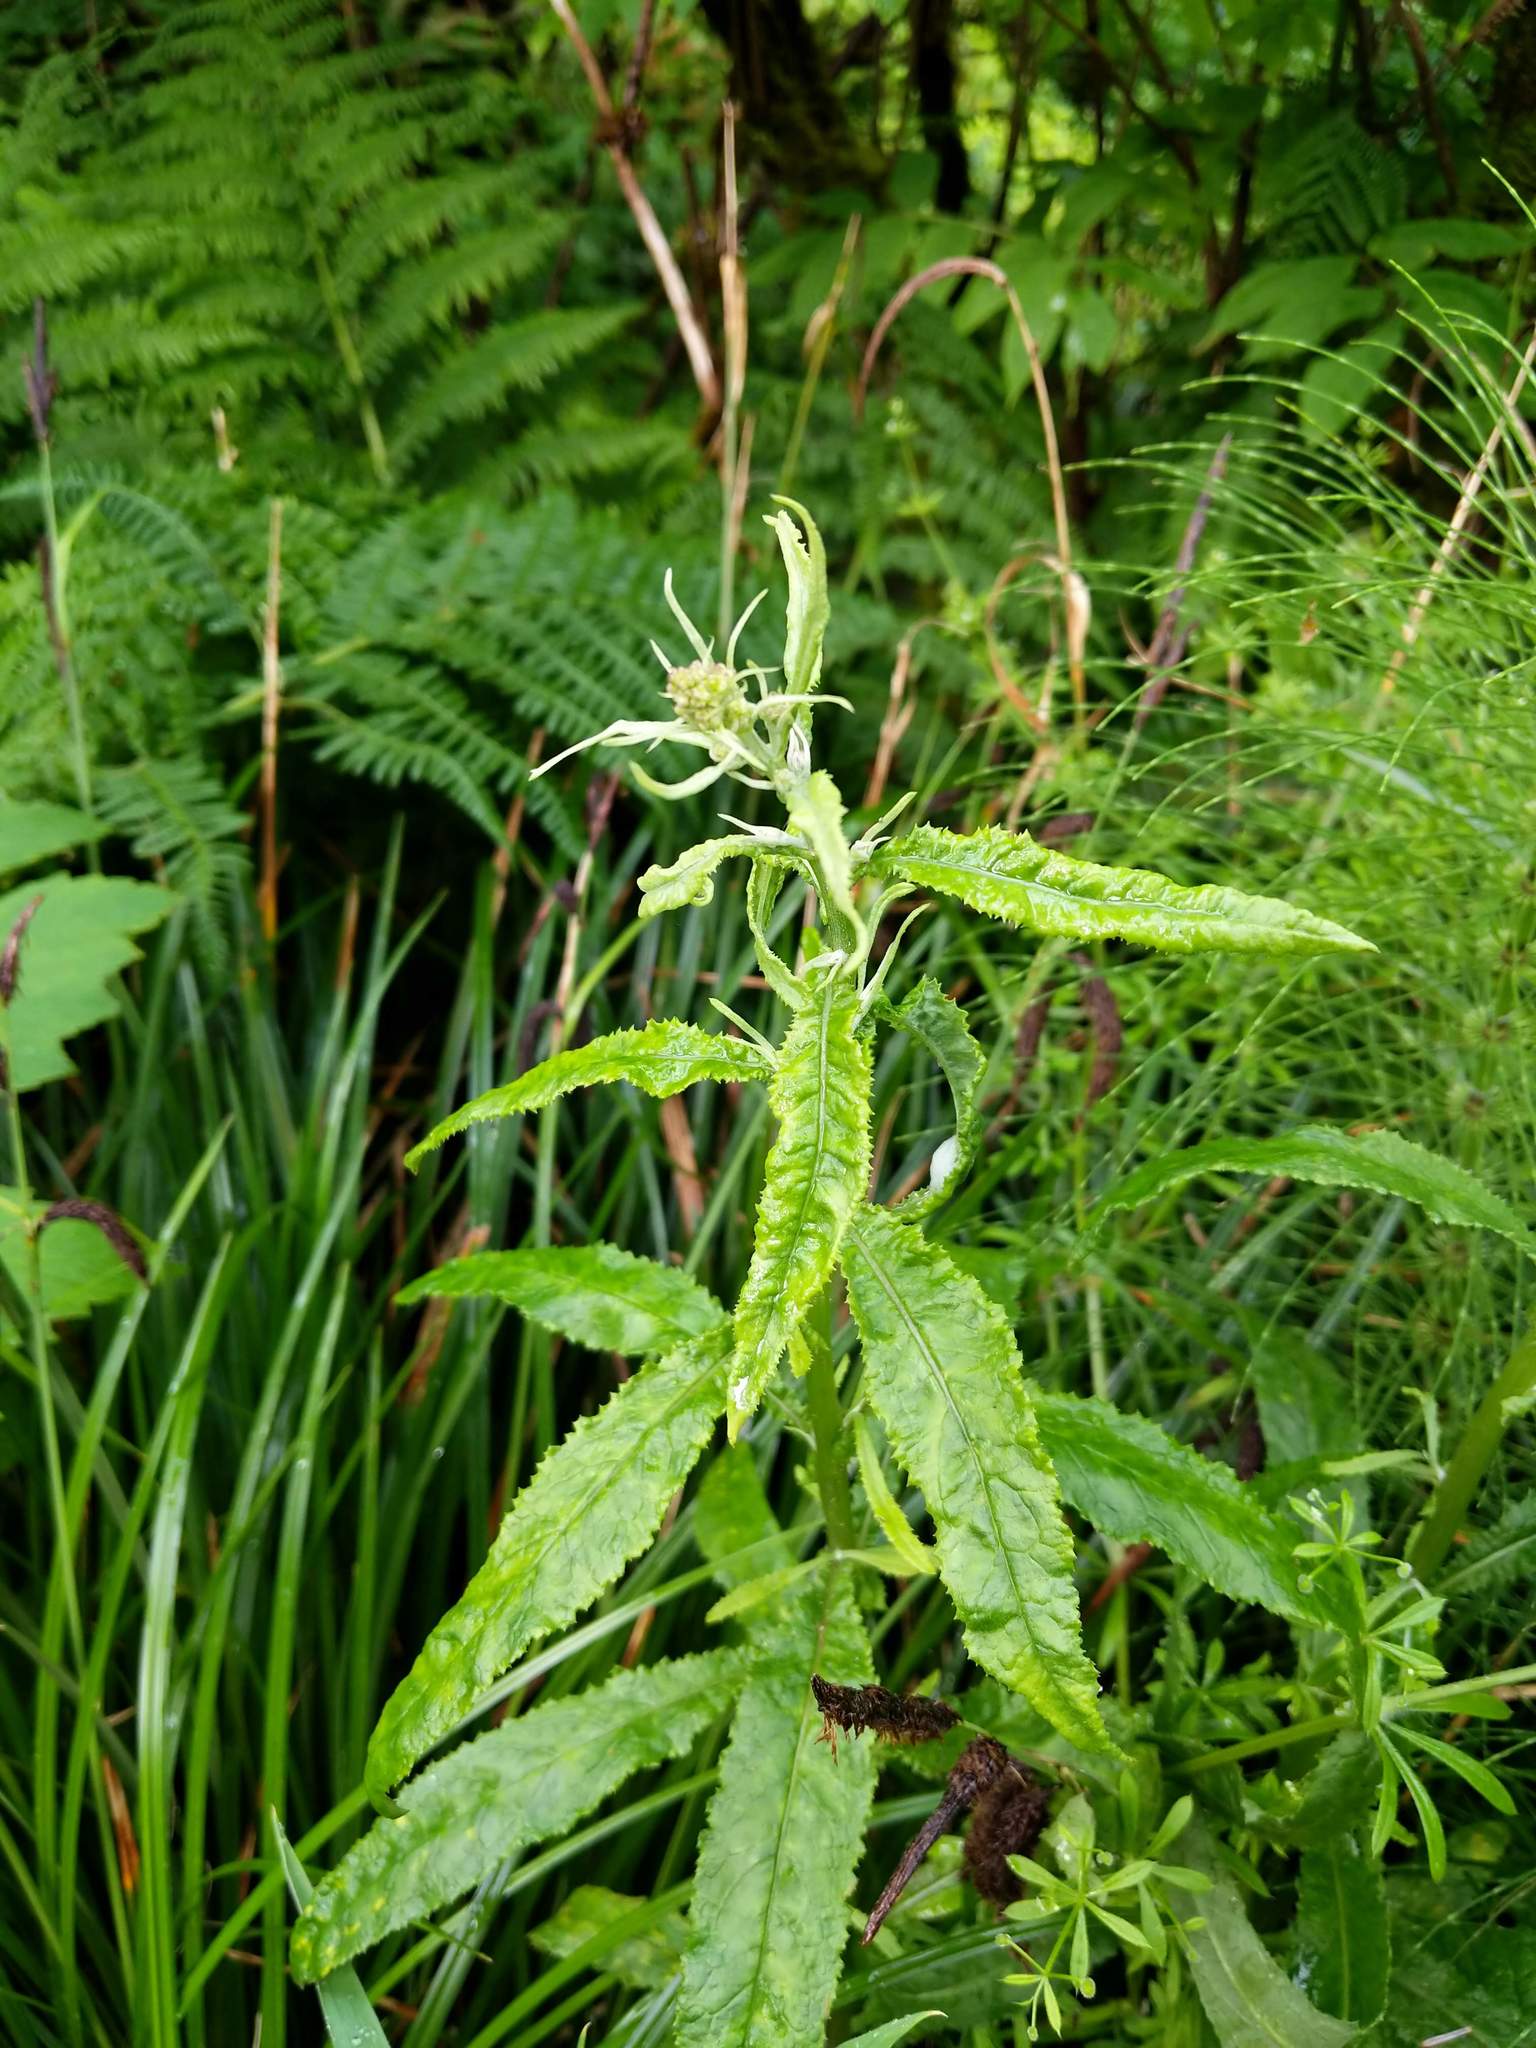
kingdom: Plantae
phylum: Tracheophyta
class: Magnoliopsida
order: Asterales
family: Asteraceae
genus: Senecio
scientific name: Senecio minimus
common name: Toothed fireweed
